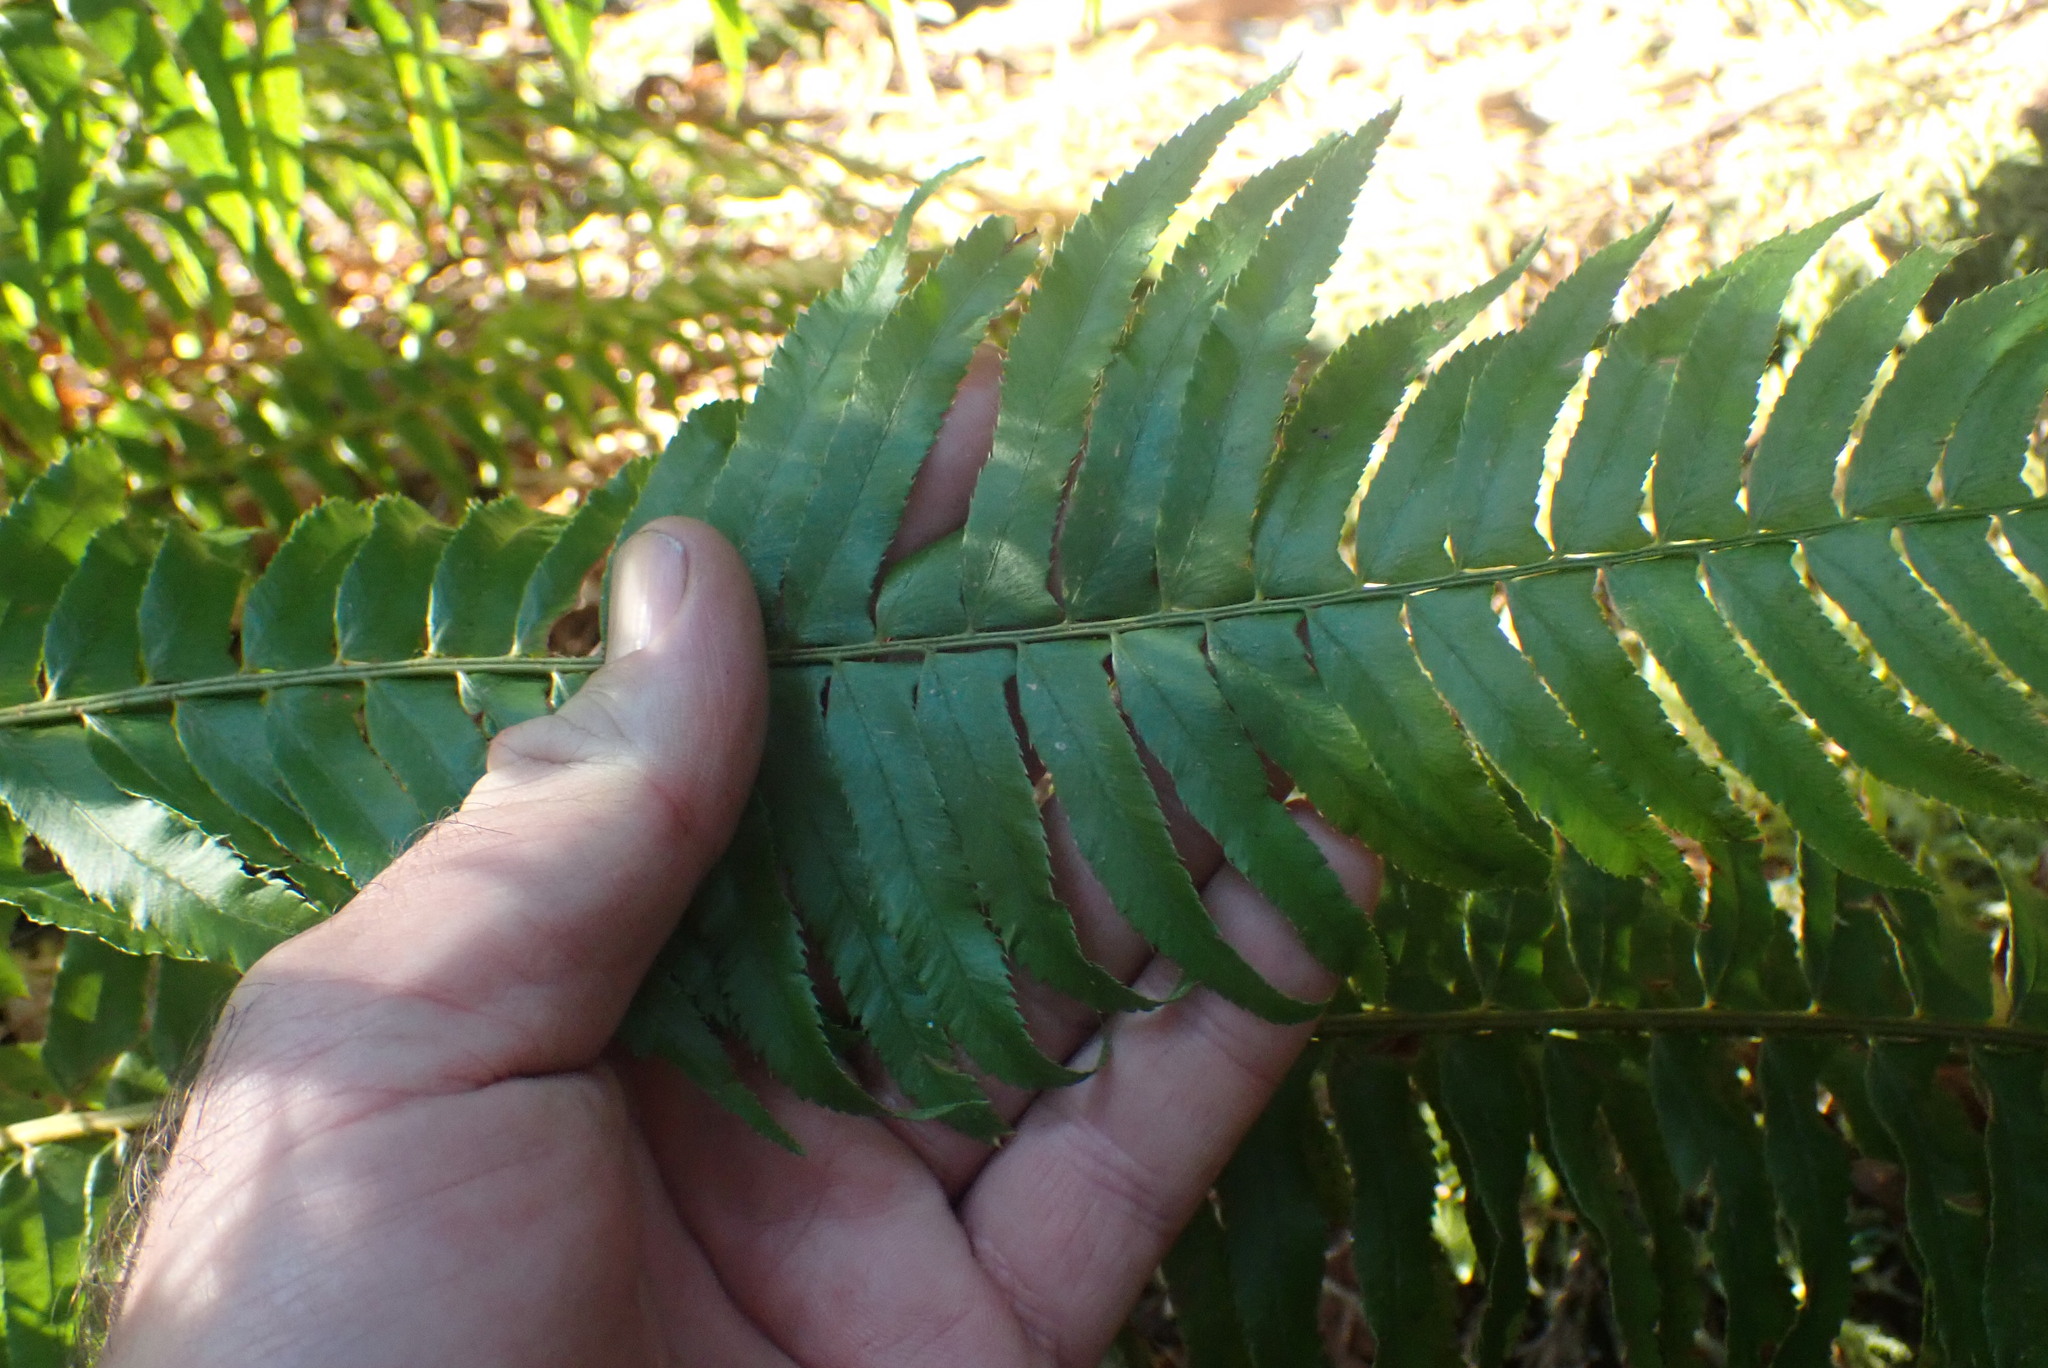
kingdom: Plantae
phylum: Tracheophyta
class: Polypodiopsida
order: Polypodiales
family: Dryopteridaceae
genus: Polystichum
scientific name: Polystichum munitum
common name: Western sword-fern
